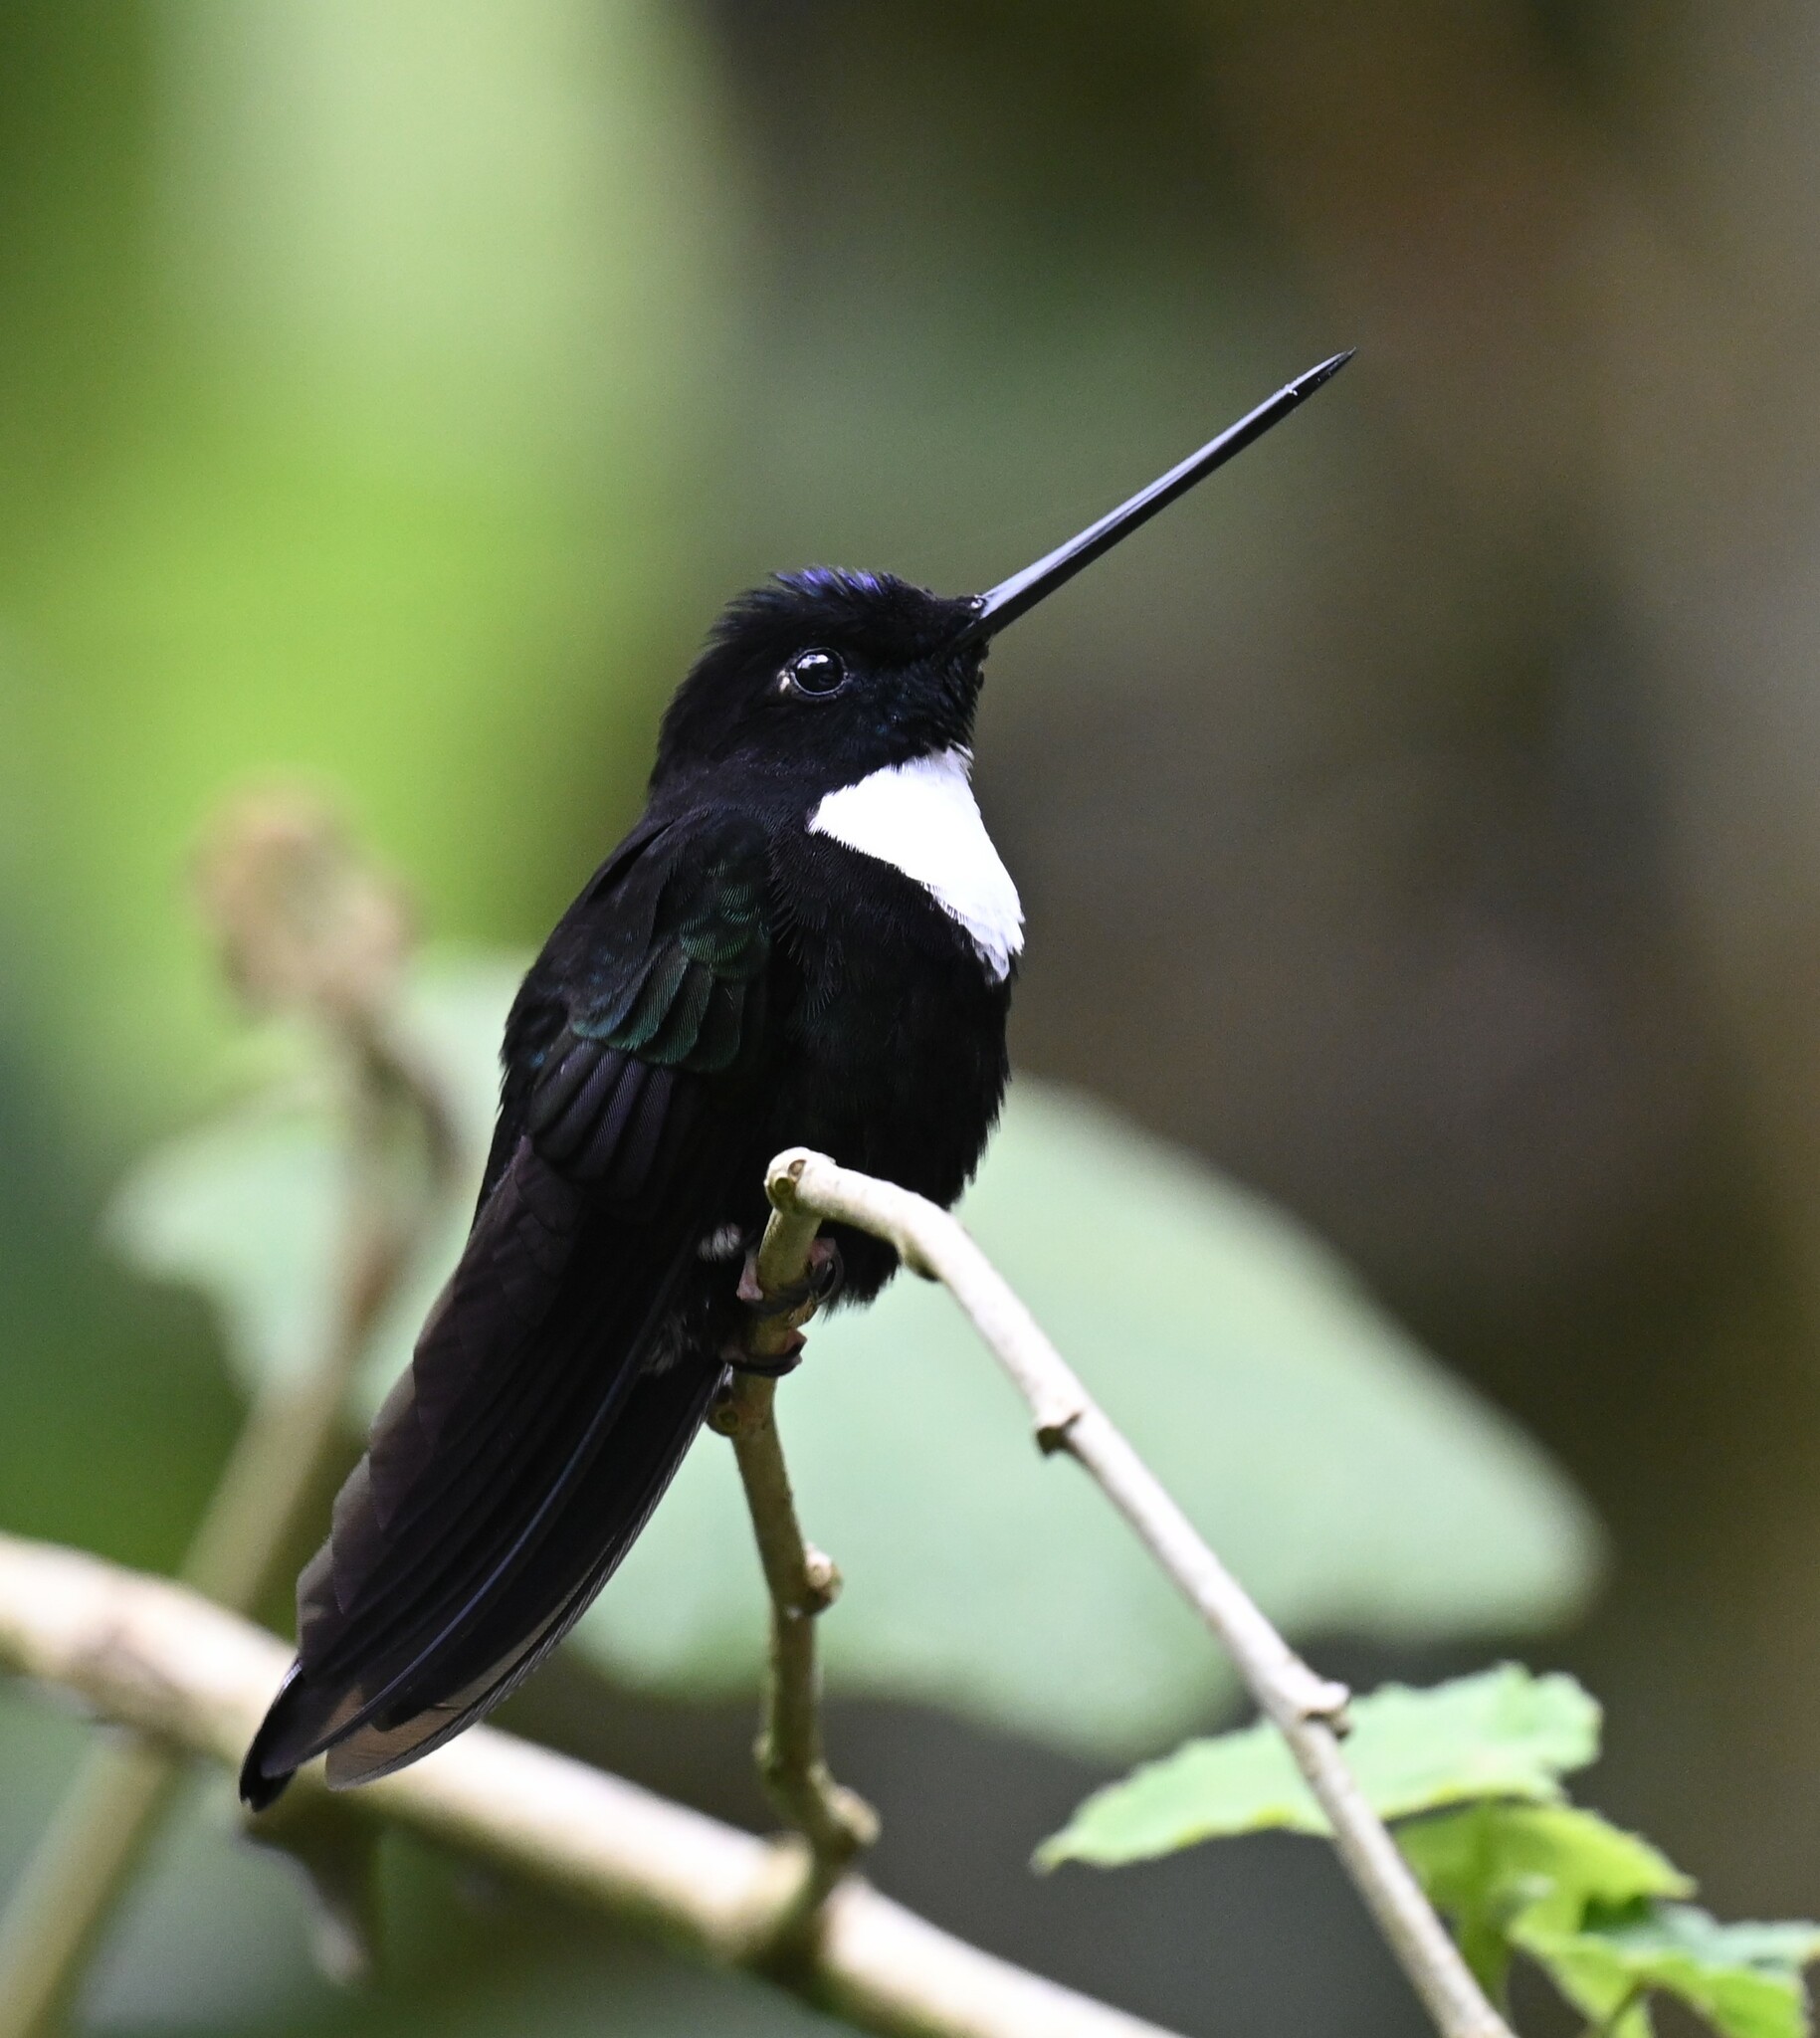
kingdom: Animalia
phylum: Chordata
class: Aves
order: Apodiformes
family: Trochilidae
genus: Coeligena
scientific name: Coeligena torquata
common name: Collared inca
